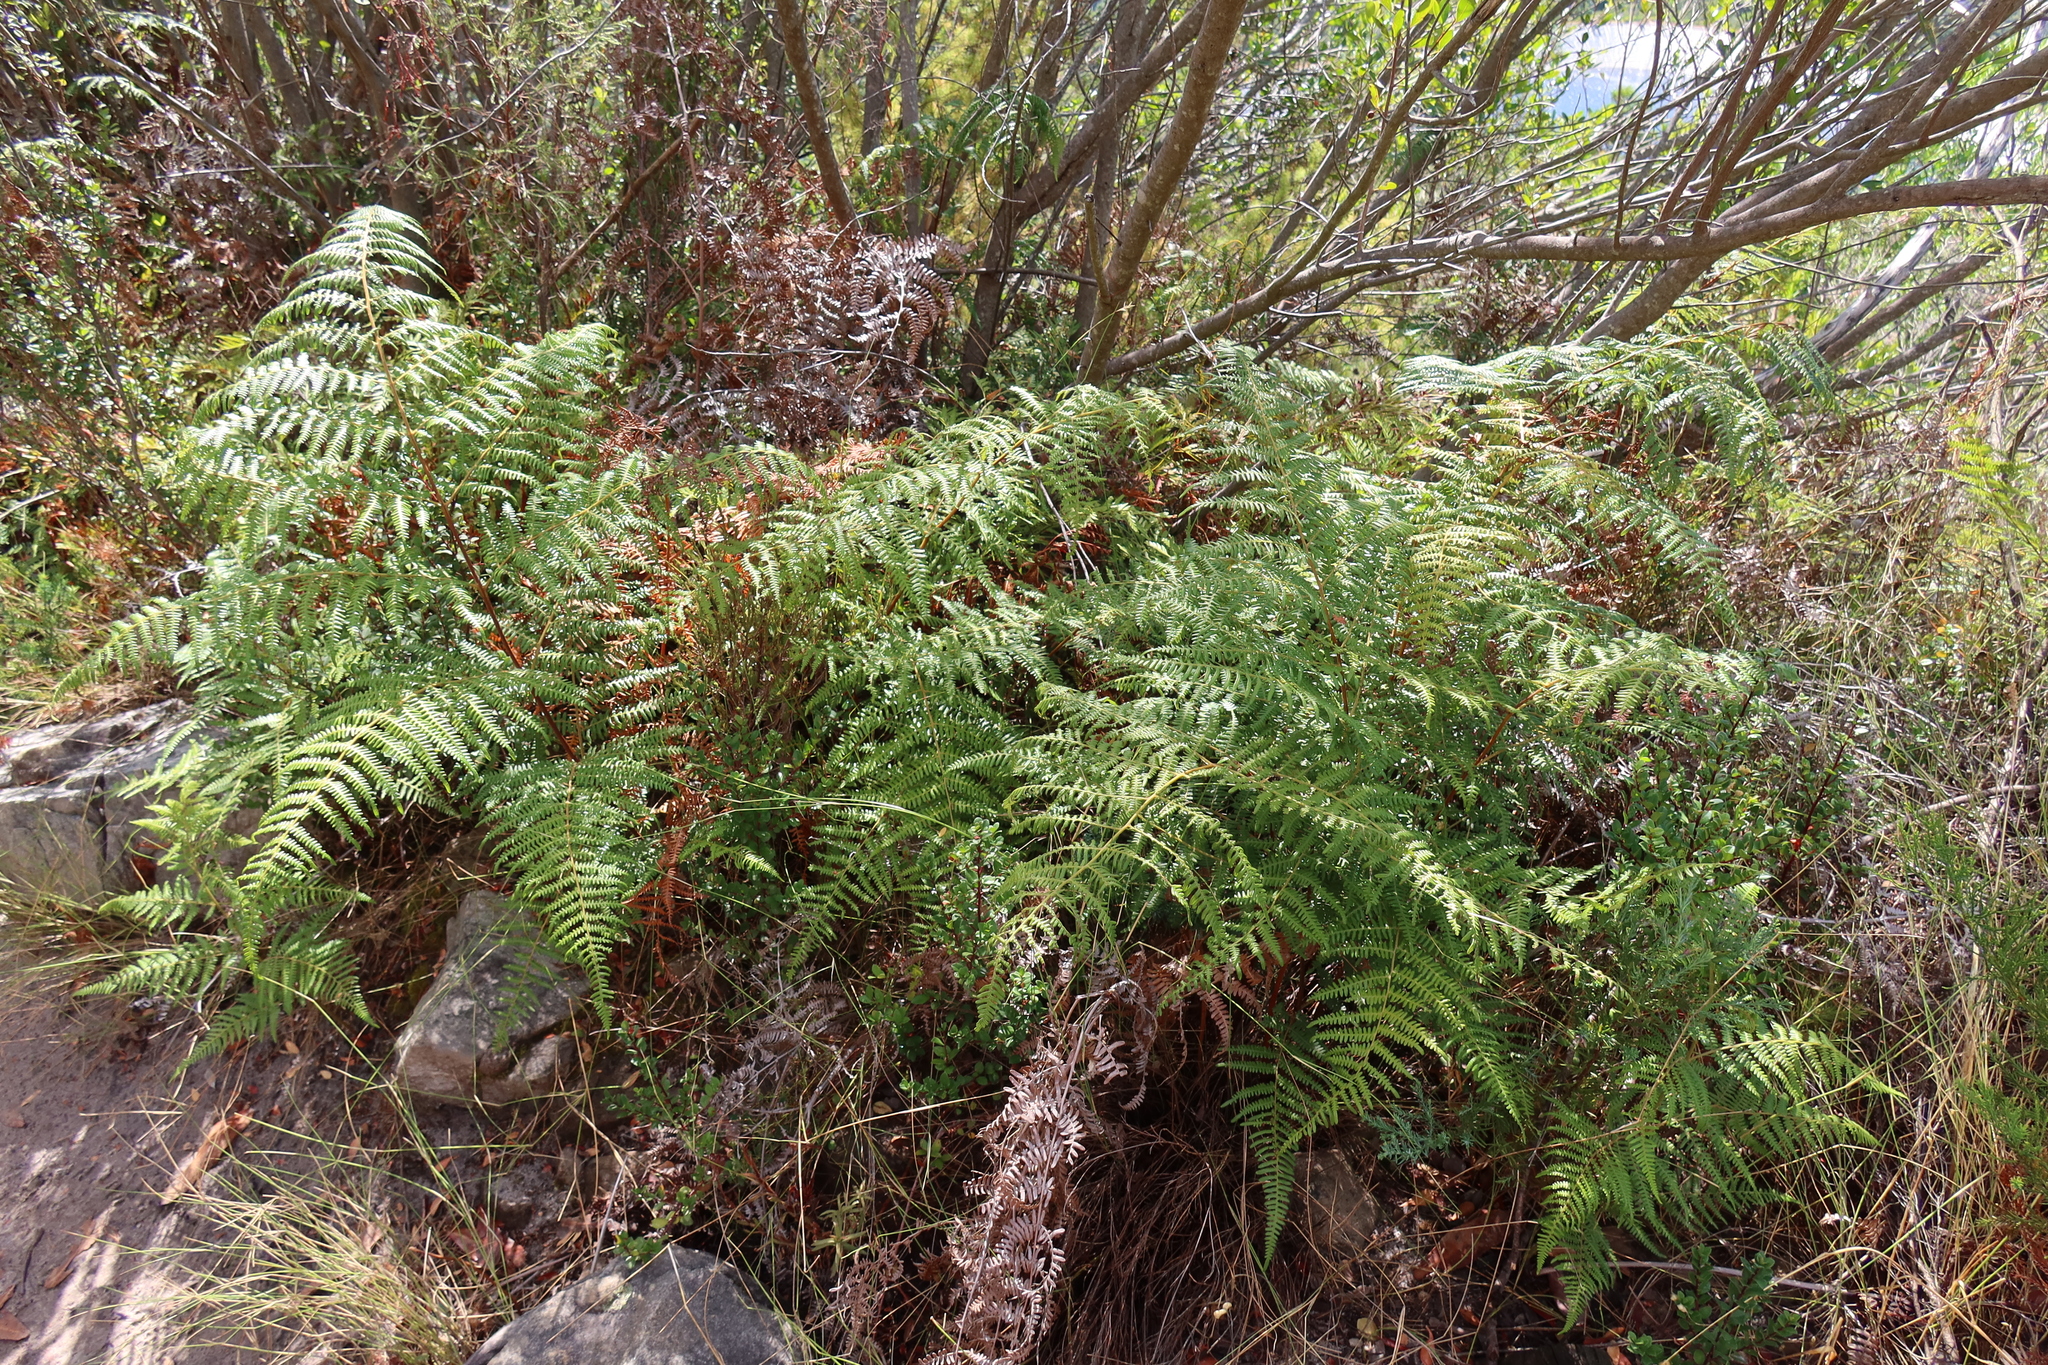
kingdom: Plantae
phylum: Tracheophyta
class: Polypodiopsida
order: Polypodiales
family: Dennstaedtiaceae
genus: Pteridium
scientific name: Pteridium aquilinum
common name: Bracken
